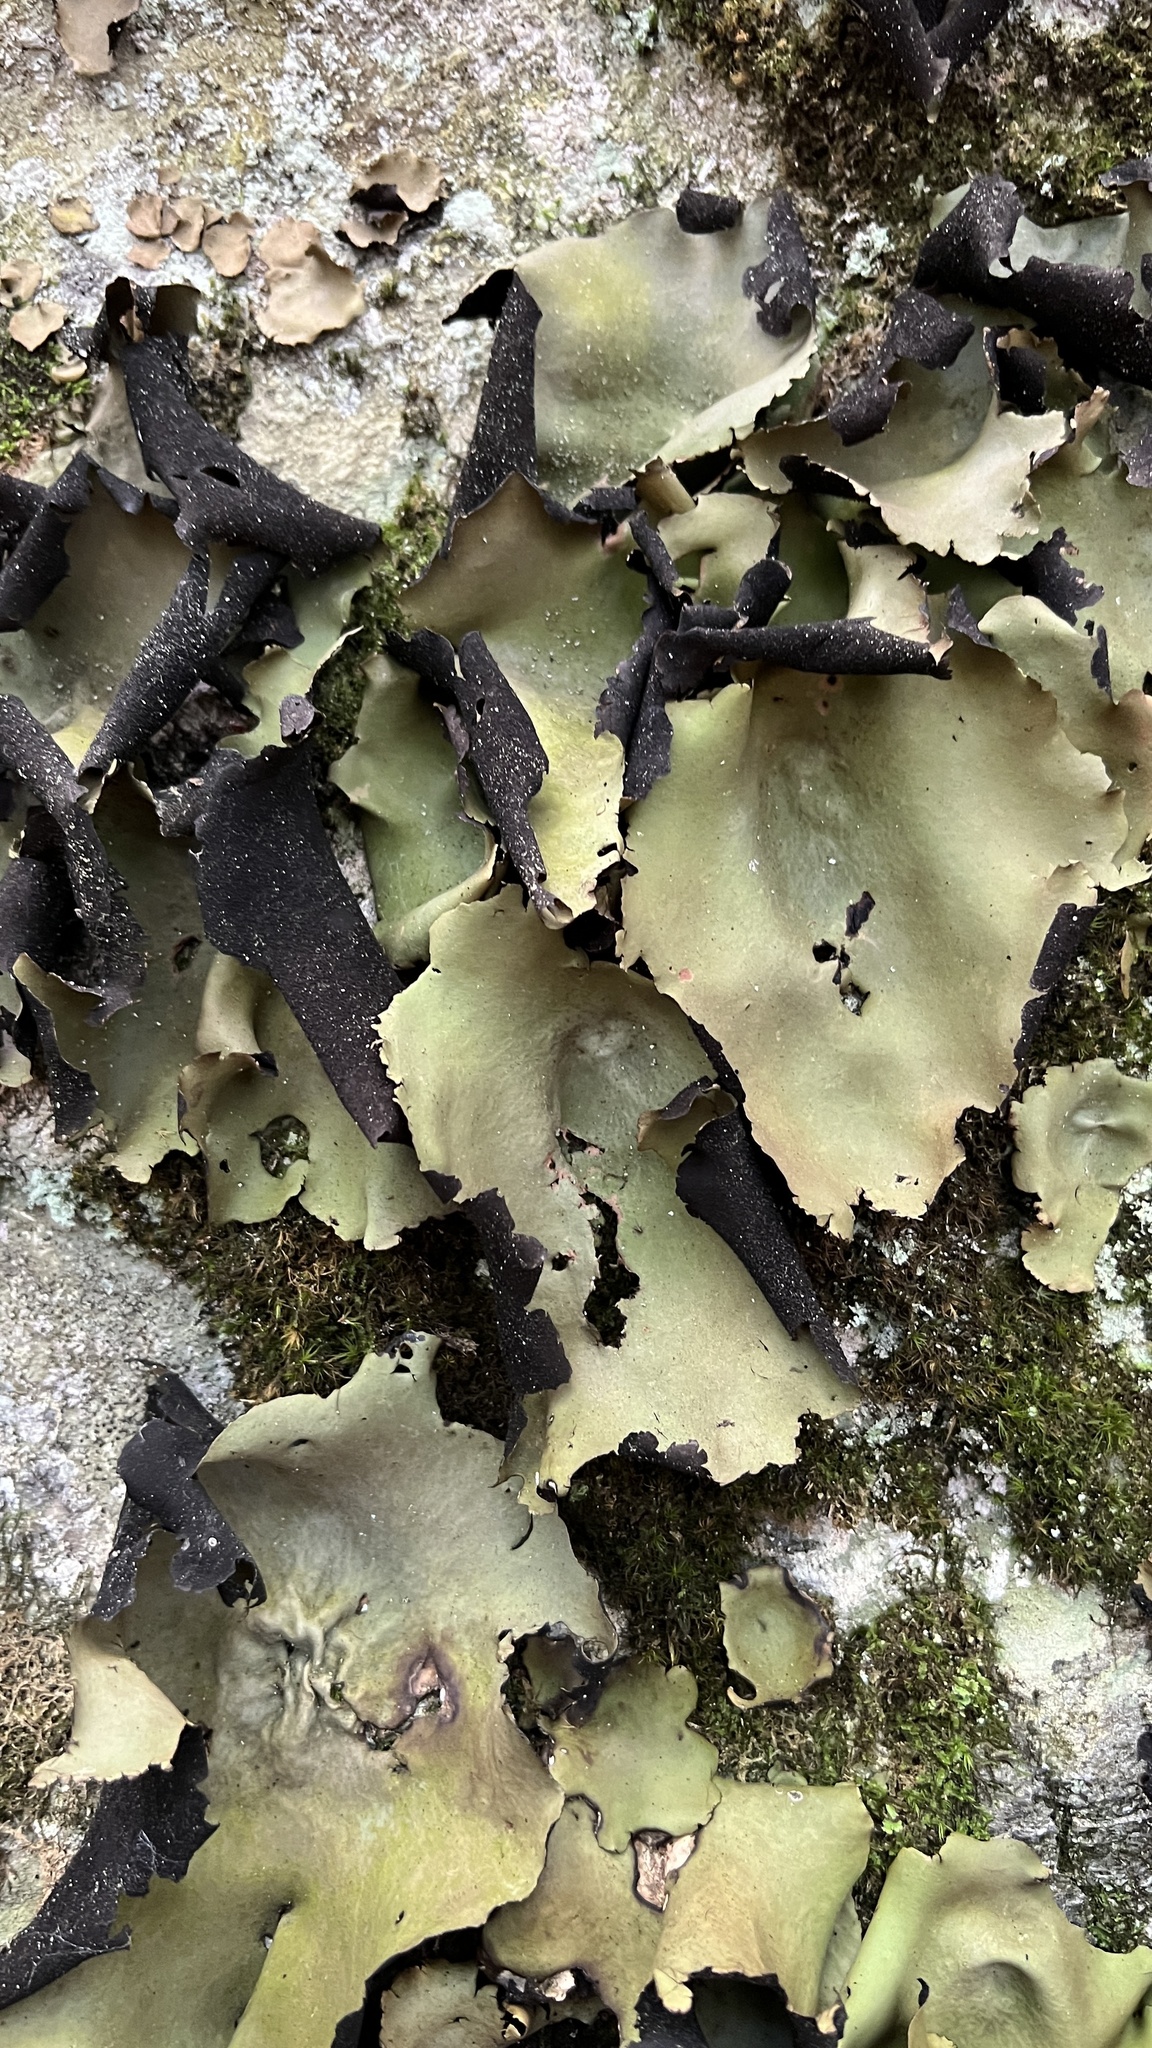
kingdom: Fungi
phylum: Ascomycota
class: Lecanoromycetes
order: Umbilicariales
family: Umbilicariaceae
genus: Umbilicaria
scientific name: Umbilicaria mammulata
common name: Smooth rock tripe
